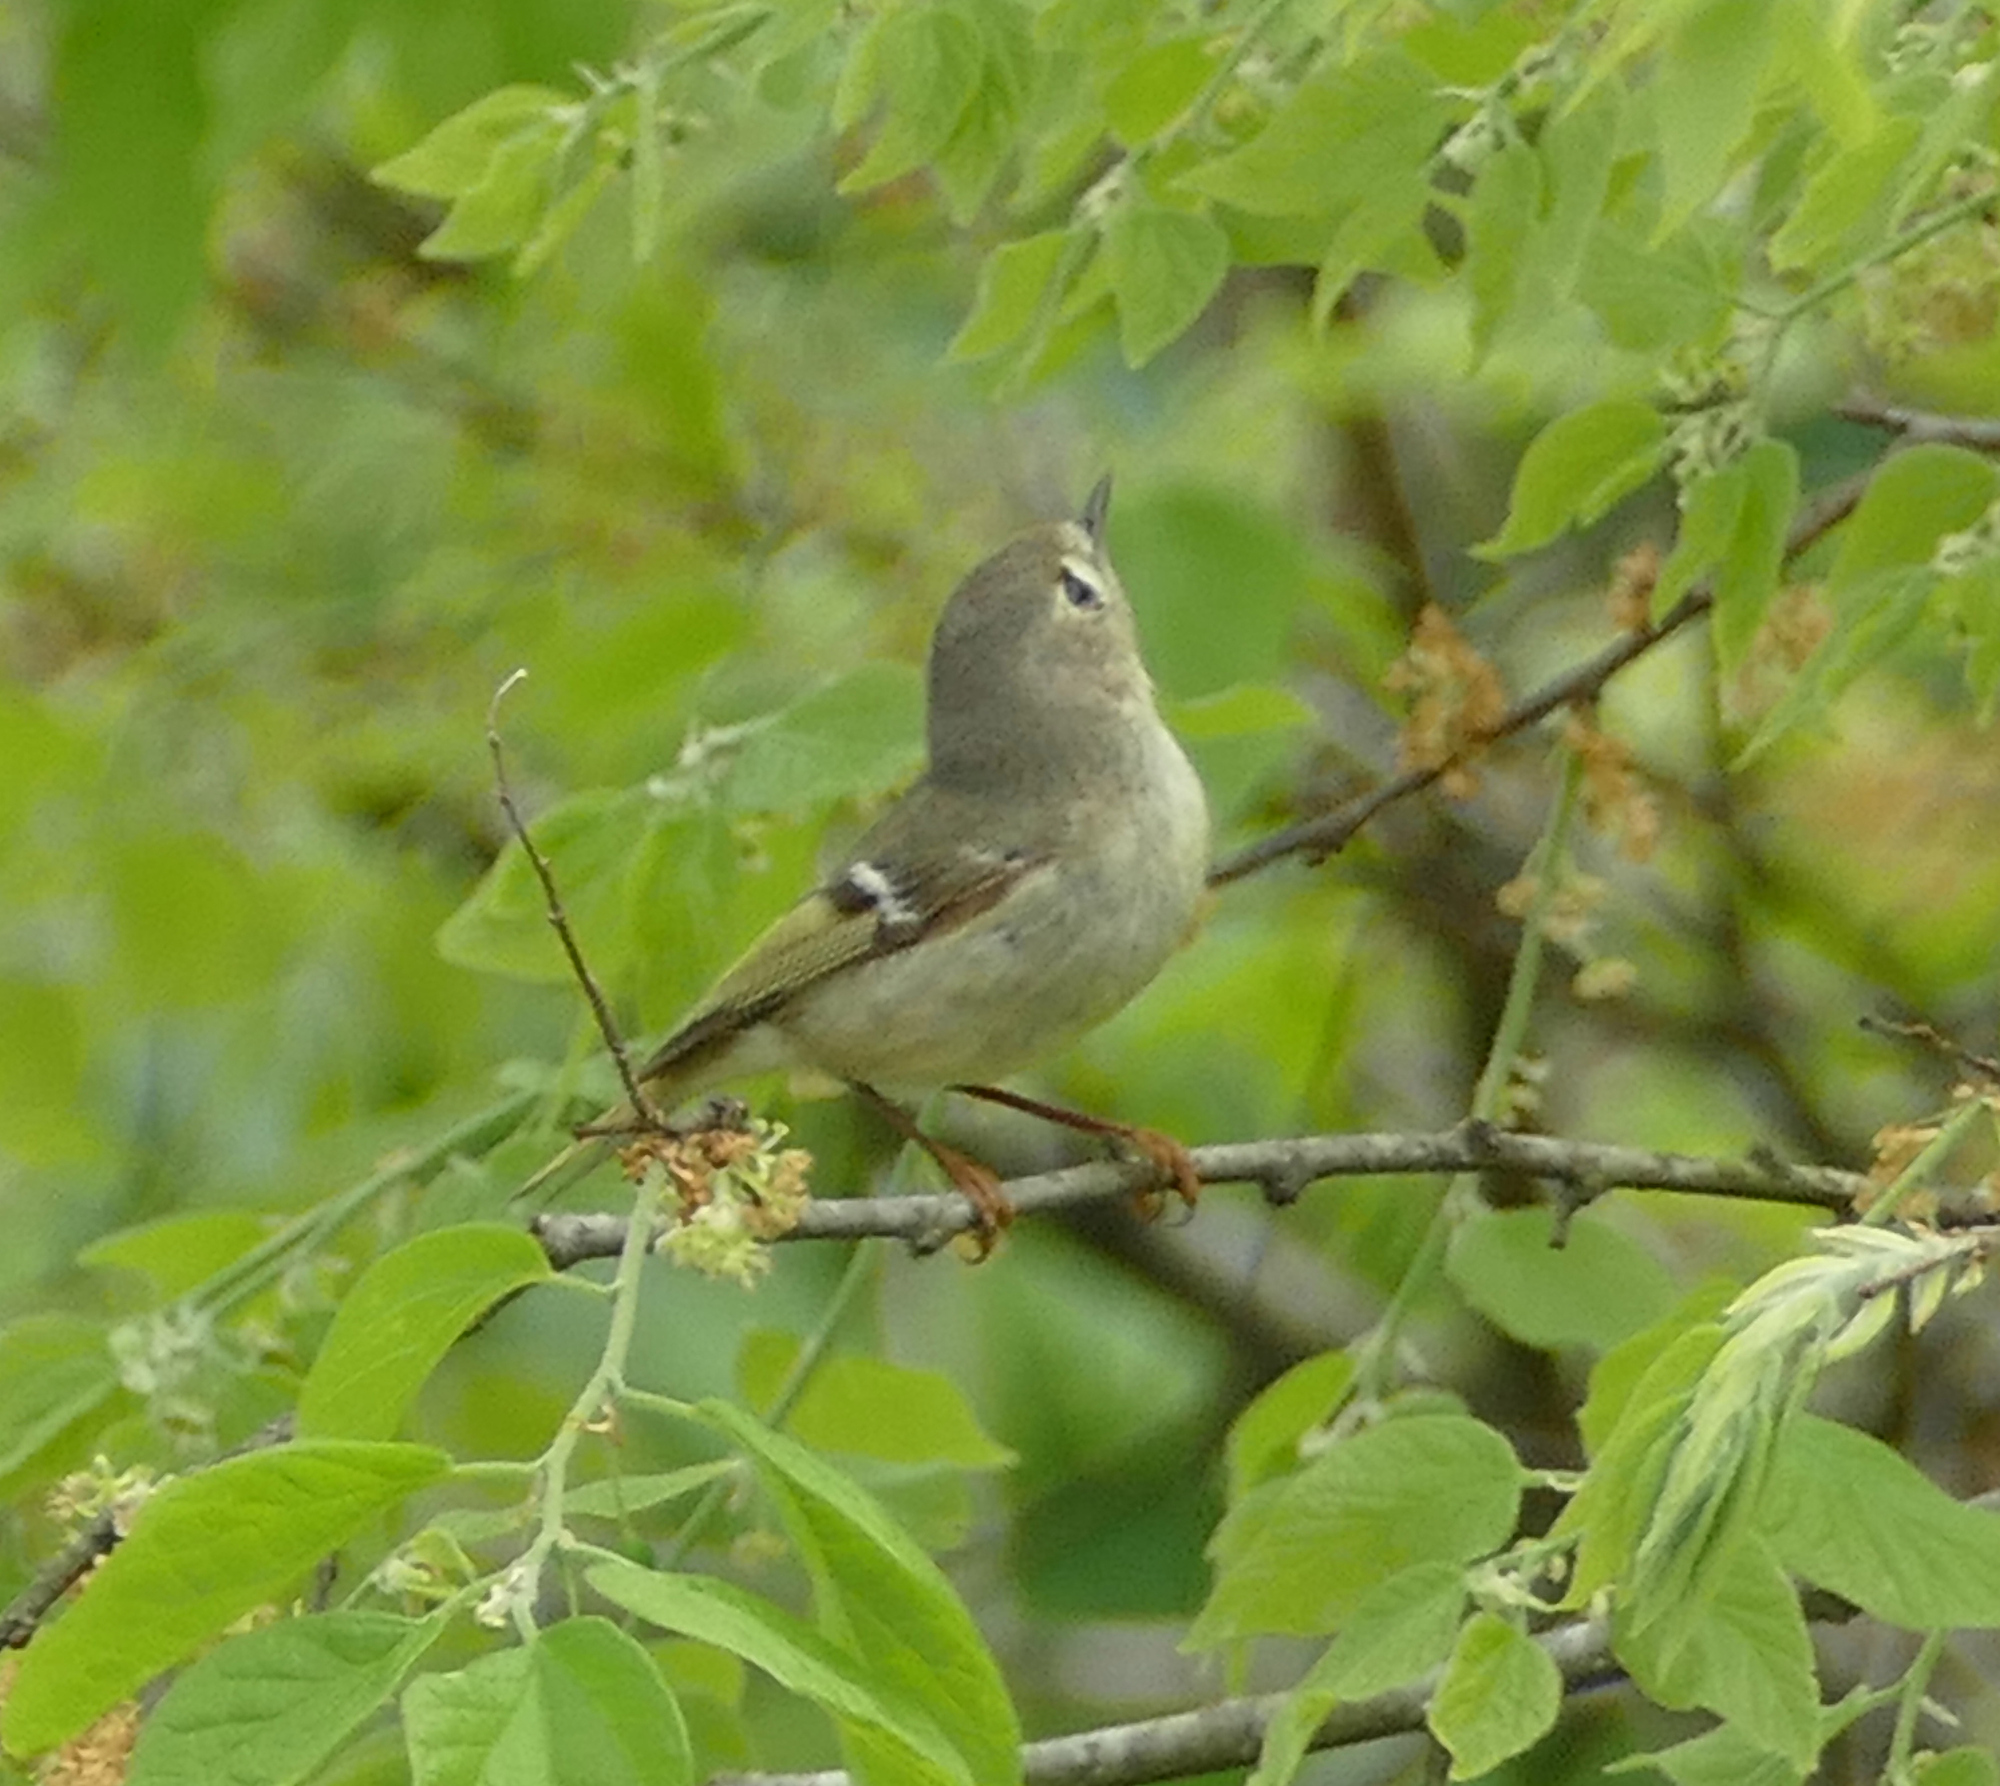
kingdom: Animalia
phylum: Chordata
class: Aves
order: Passeriformes
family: Regulidae
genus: Regulus
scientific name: Regulus calendula
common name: Ruby-crowned kinglet
